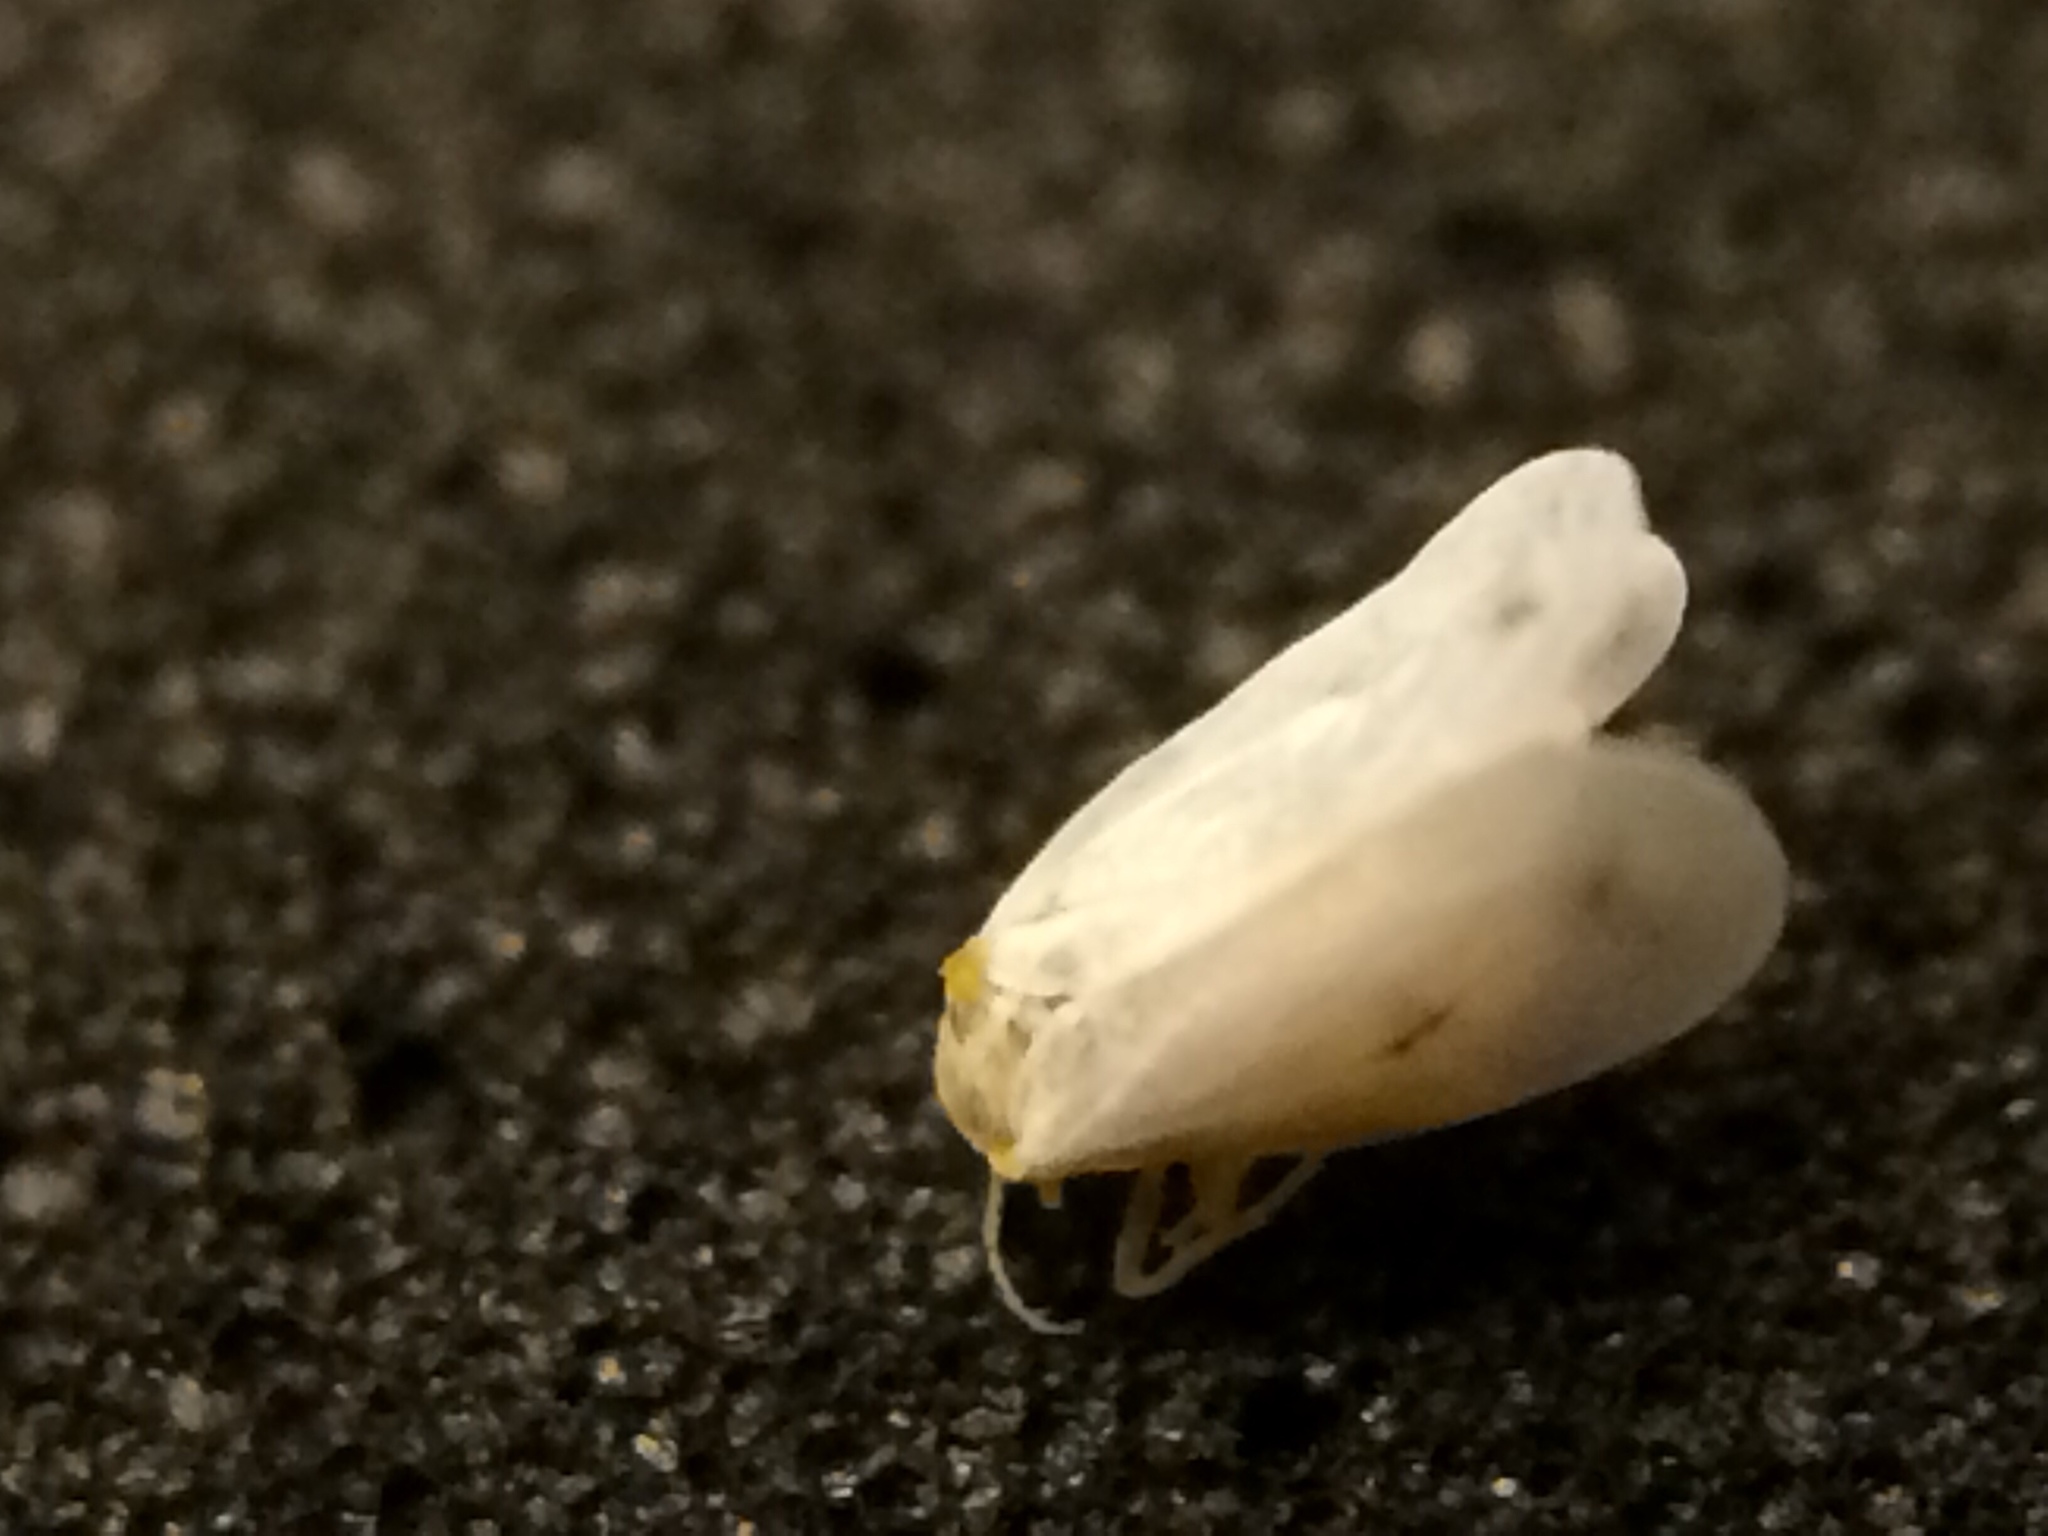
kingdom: Animalia
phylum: Arthropoda
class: Insecta
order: Hemiptera
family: Aleyrodidae
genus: Aleyrodes
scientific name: Aleyrodes proletella
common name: Cabbage whitefly
